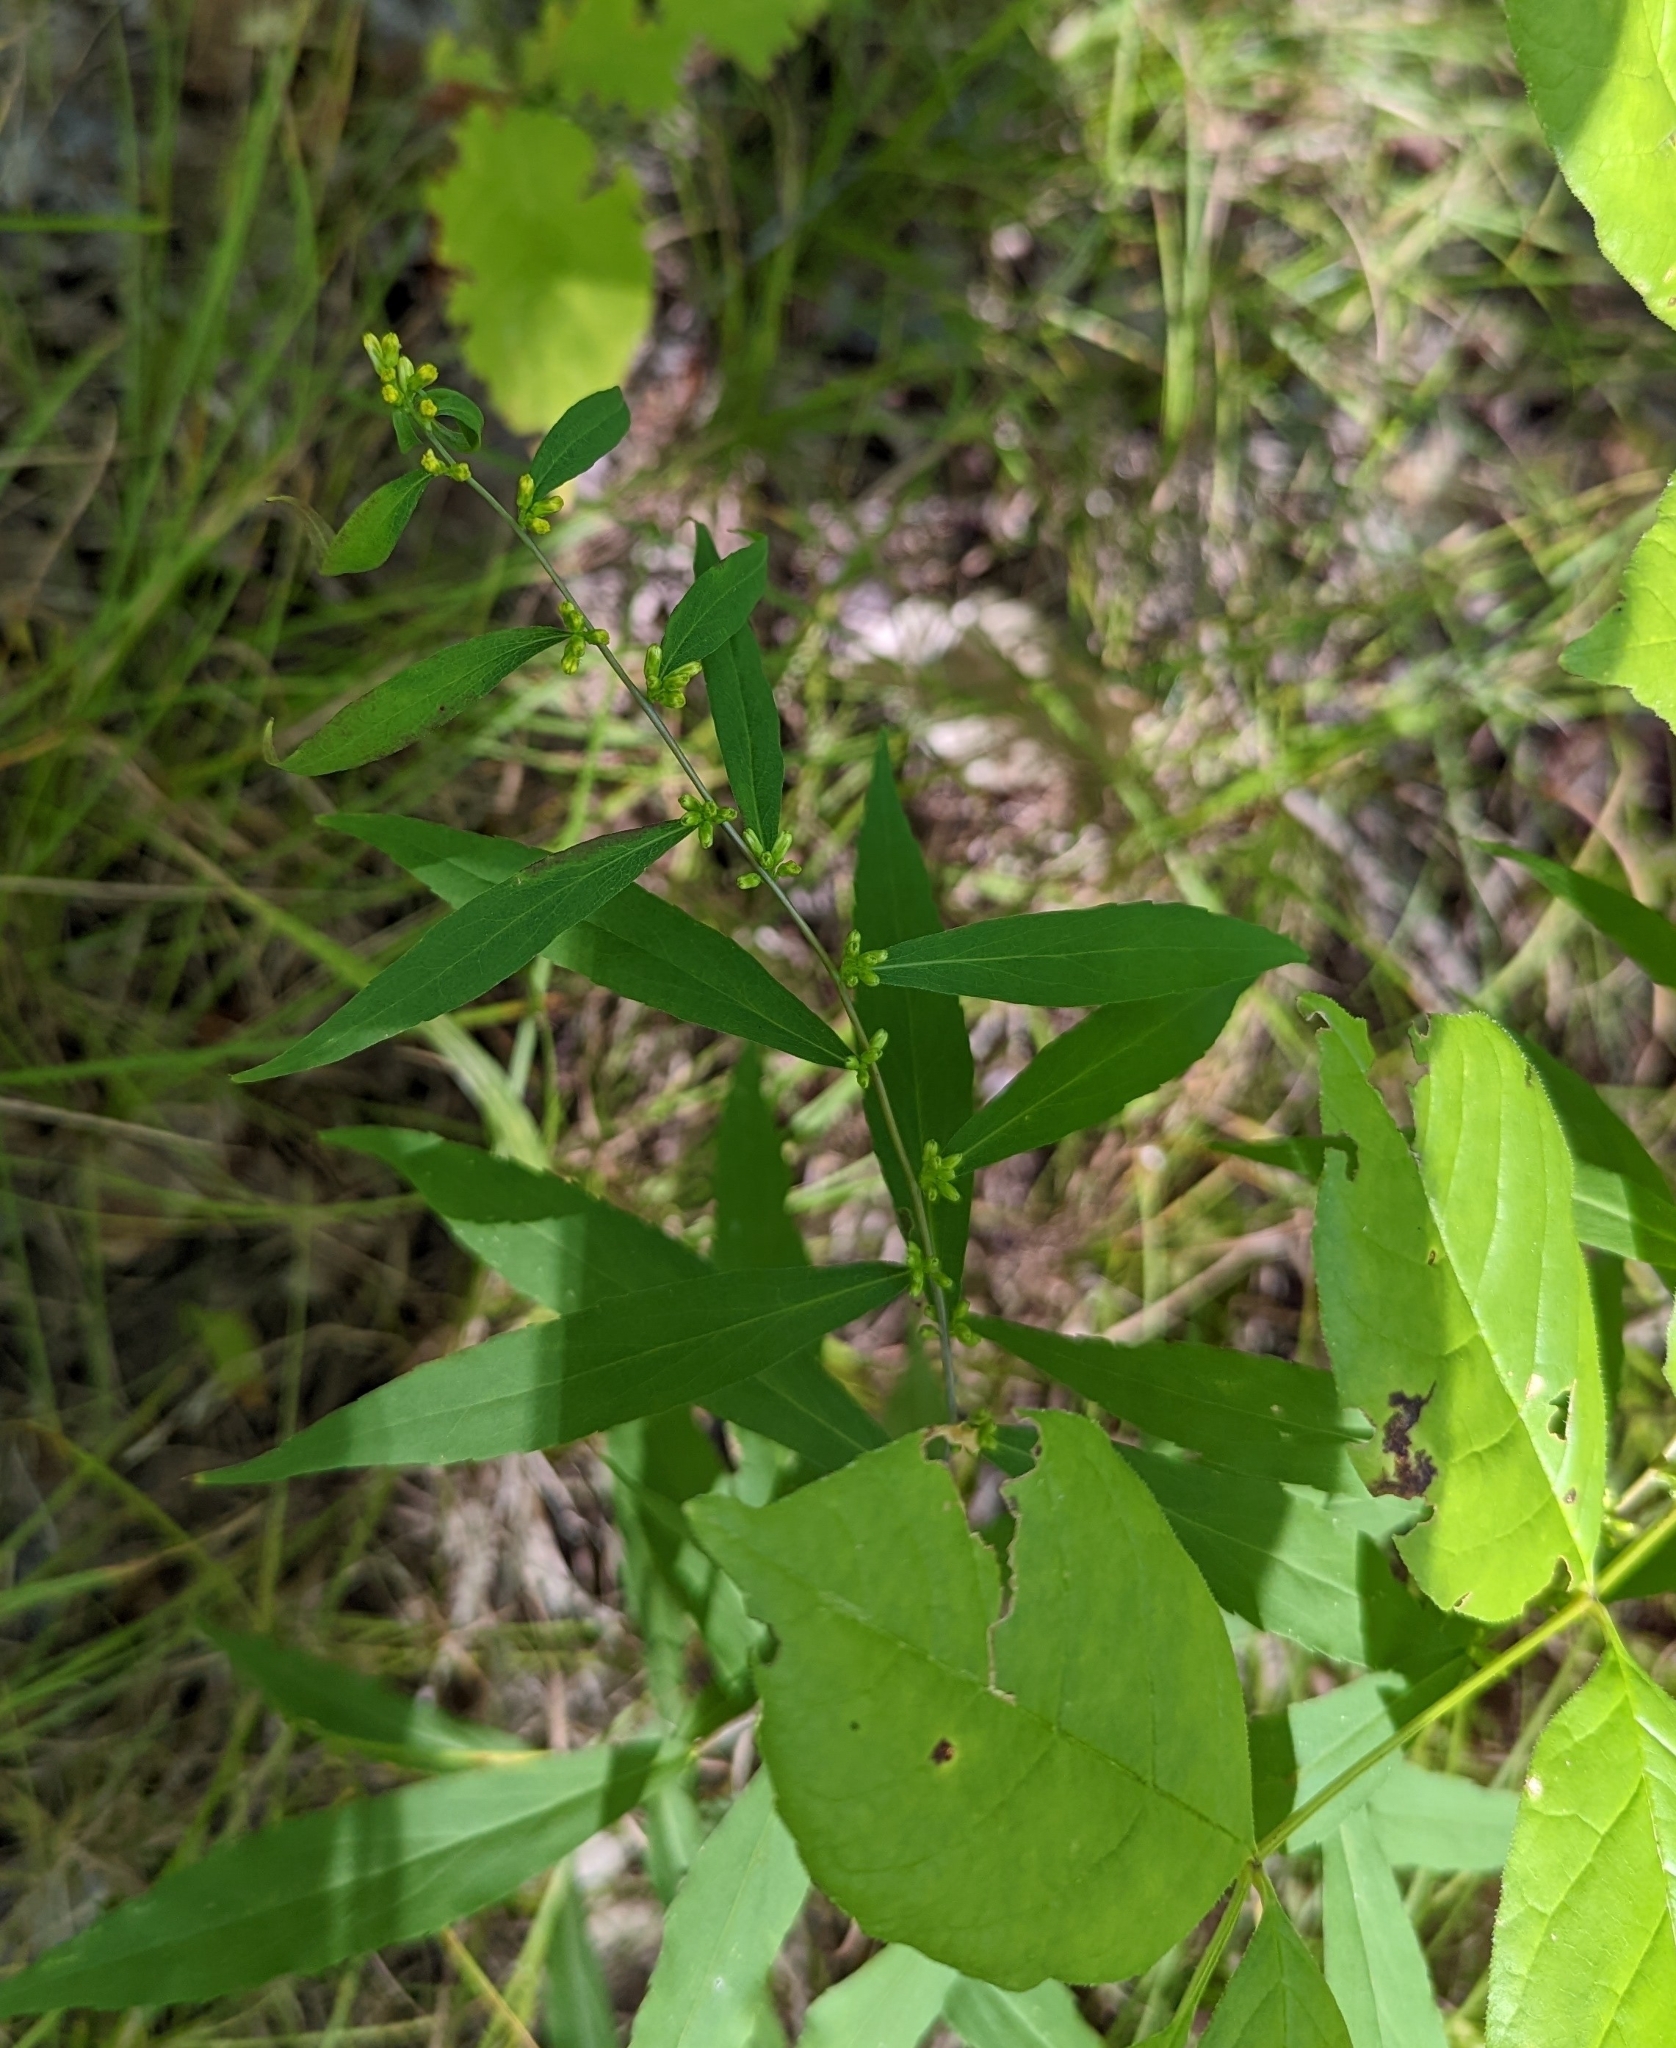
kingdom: Plantae
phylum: Tracheophyta
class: Magnoliopsida
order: Asterales
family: Asteraceae
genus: Solidago
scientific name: Solidago caesia
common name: Woodland goldenrod
